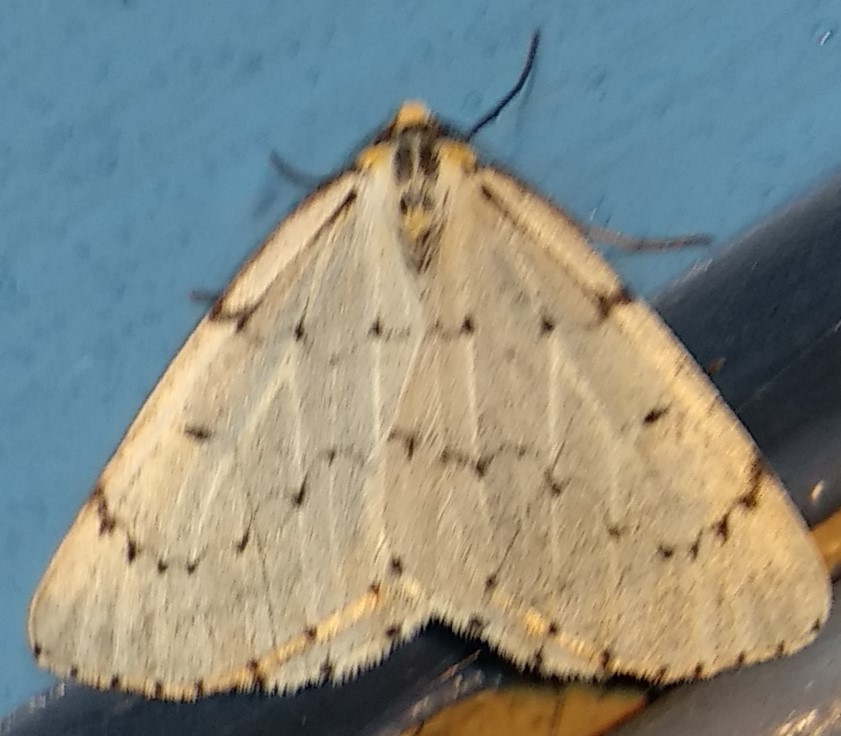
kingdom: Animalia
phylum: Arthropoda
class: Insecta
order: Lepidoptera
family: Geometridae
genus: Cingilia
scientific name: Cingilia catenaria
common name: Chain-dotted geometer
